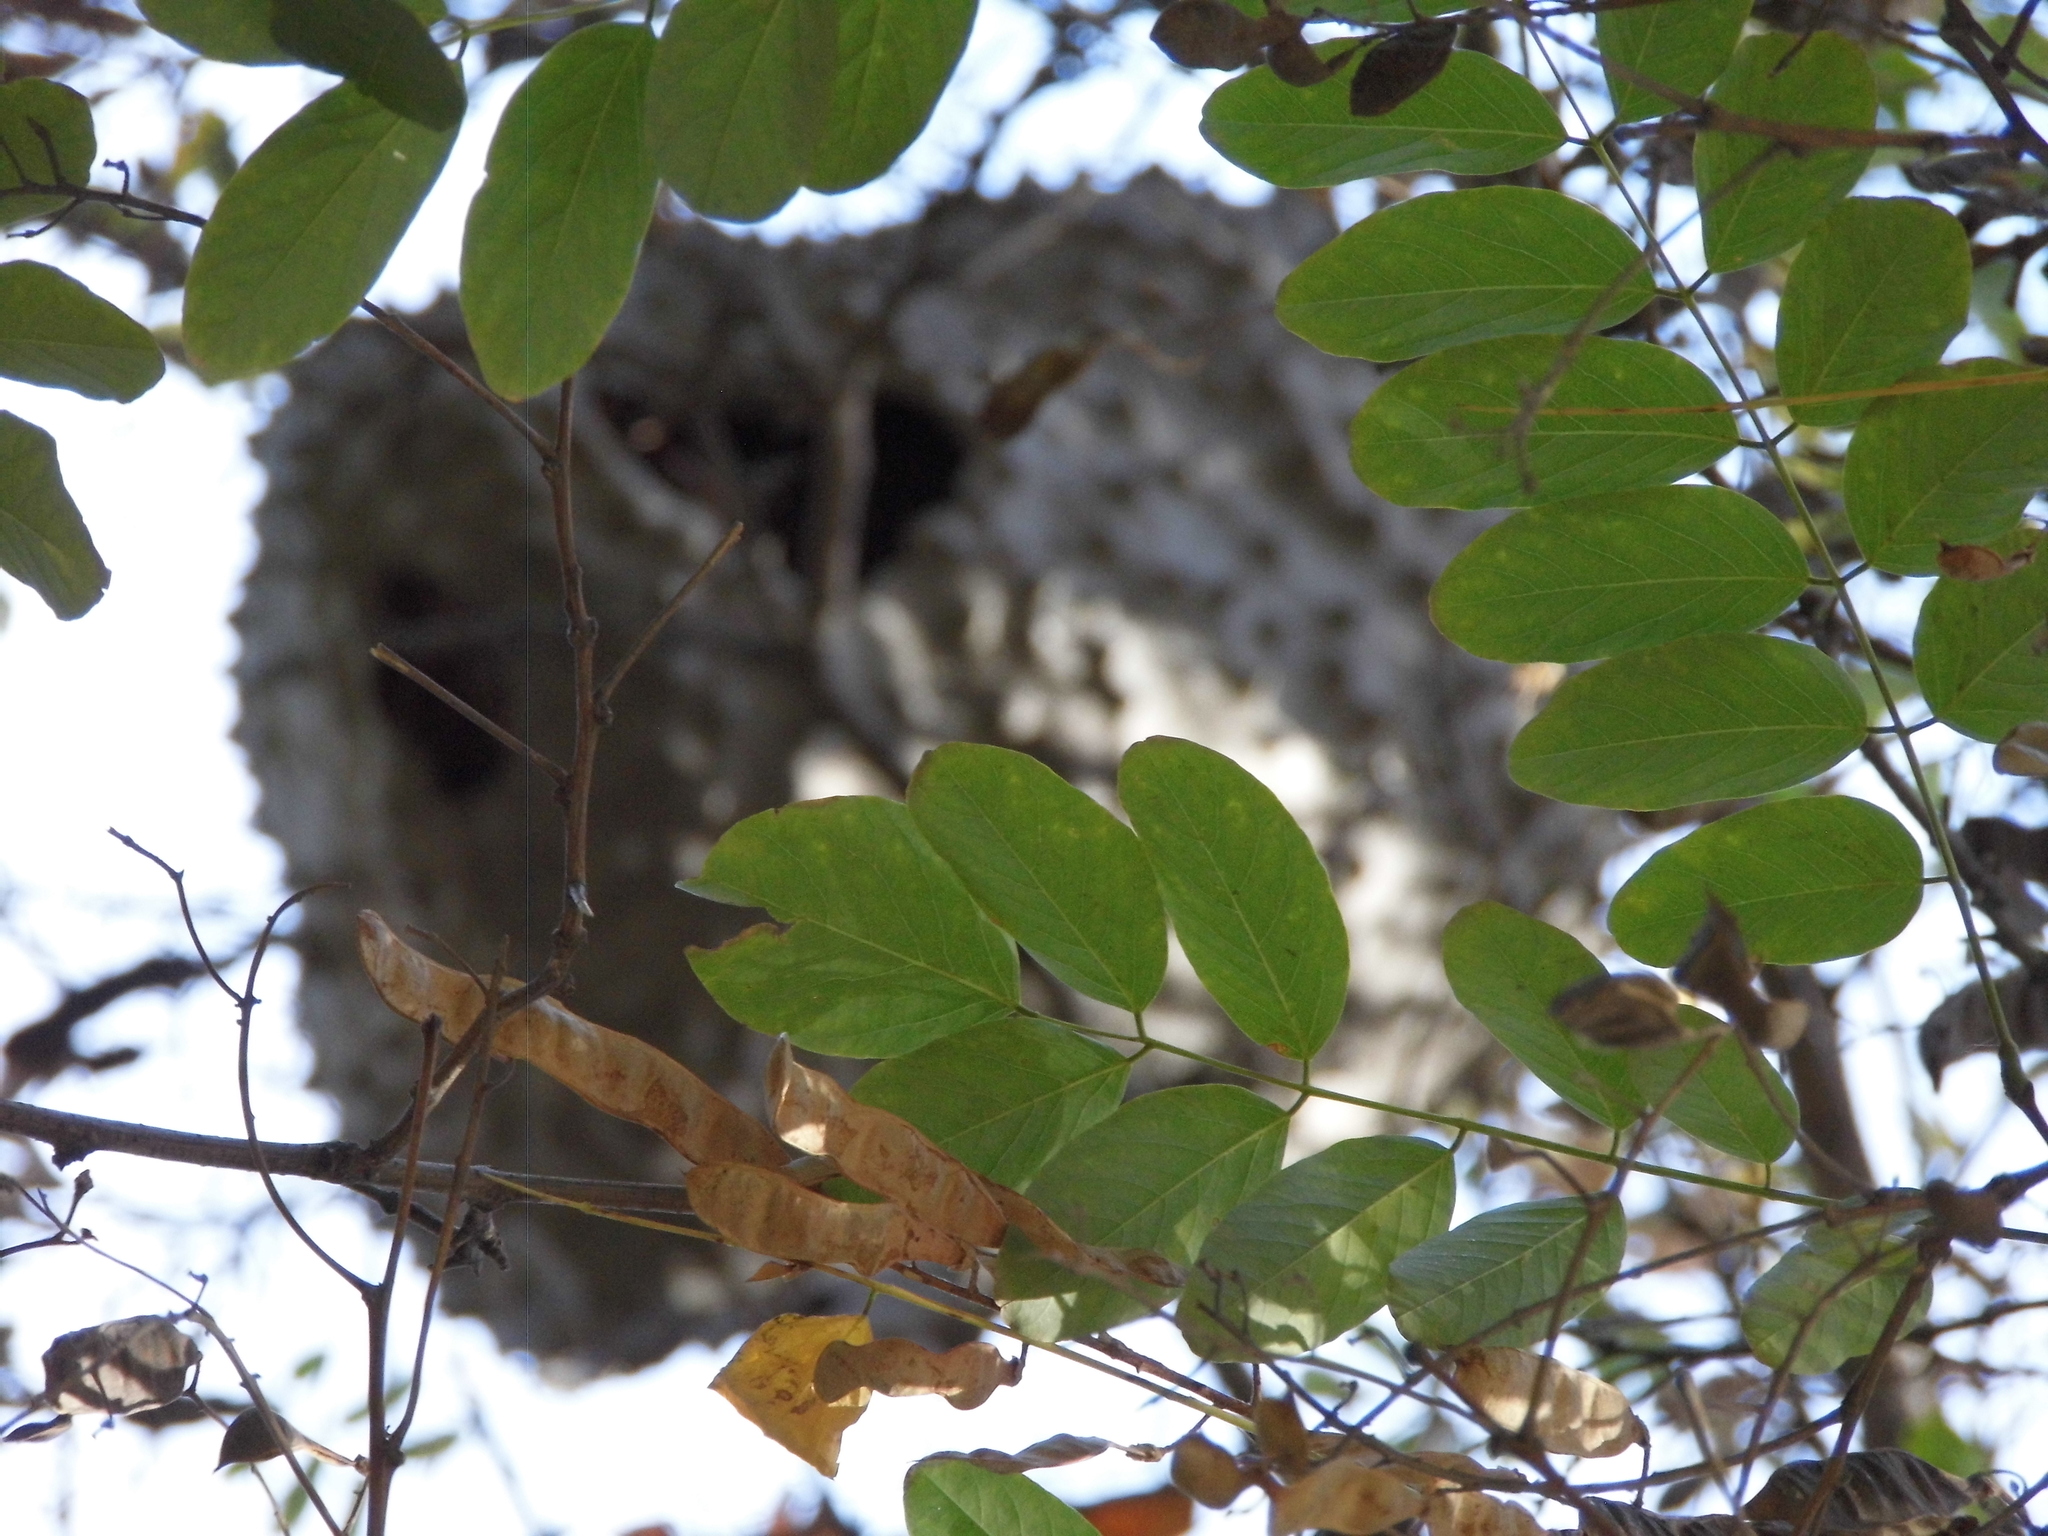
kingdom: Animalia
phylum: Arthropoda
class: Insecta
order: Hymenoptera
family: Eumenidae
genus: Polybia
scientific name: Polybia scutellaris
